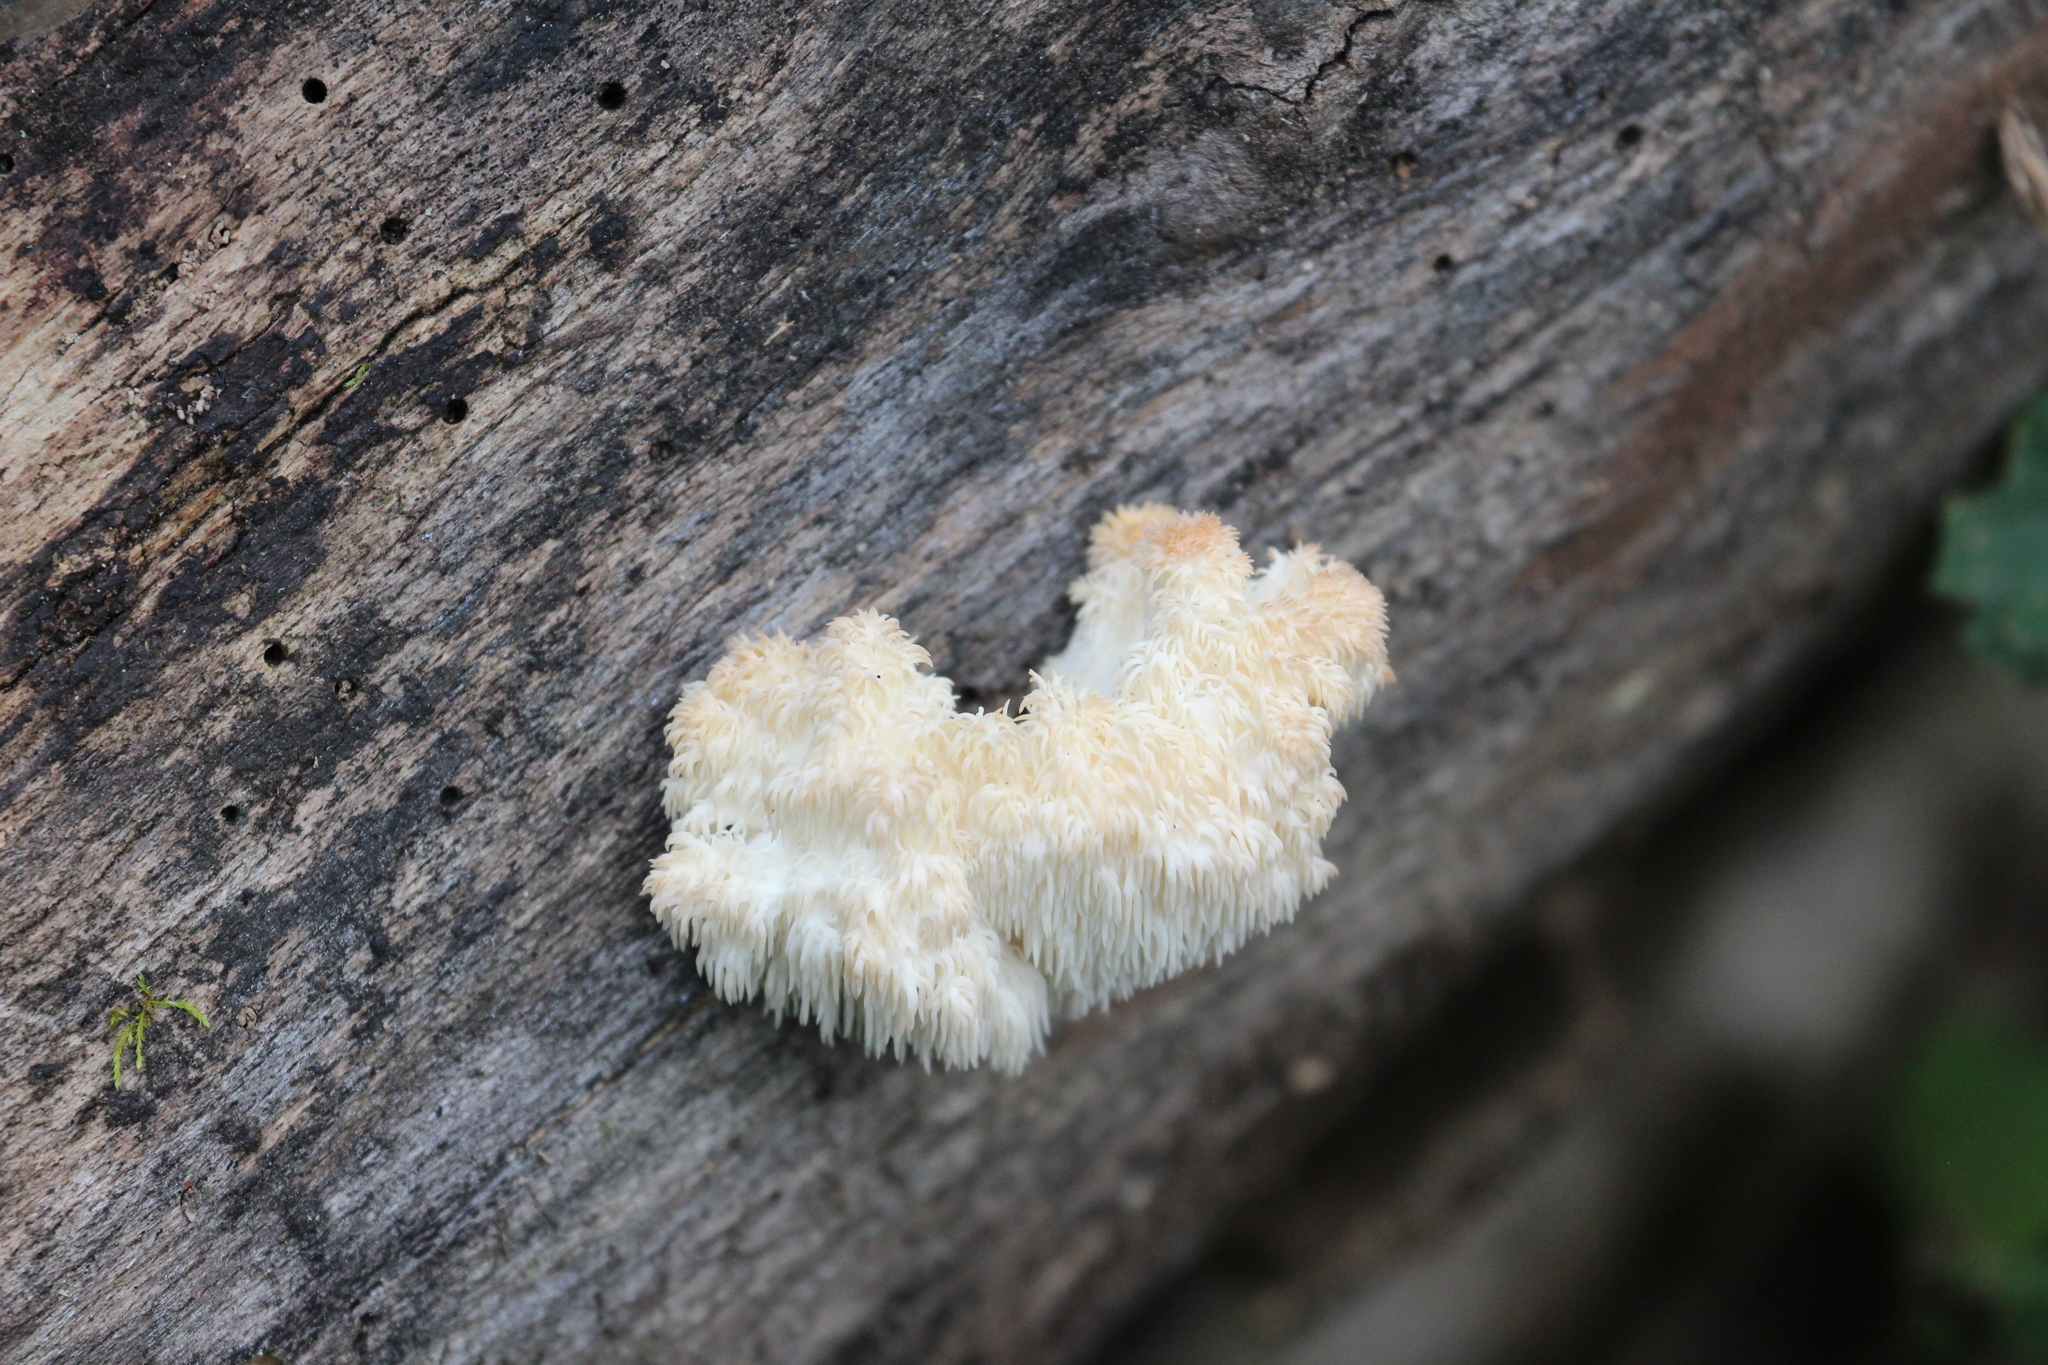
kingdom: Fungi
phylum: Basidiomycota
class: Agaricomycetes
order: Russulales
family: Hericiaceae
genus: Hericium
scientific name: Hericium americanum
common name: Bear's head tooth
